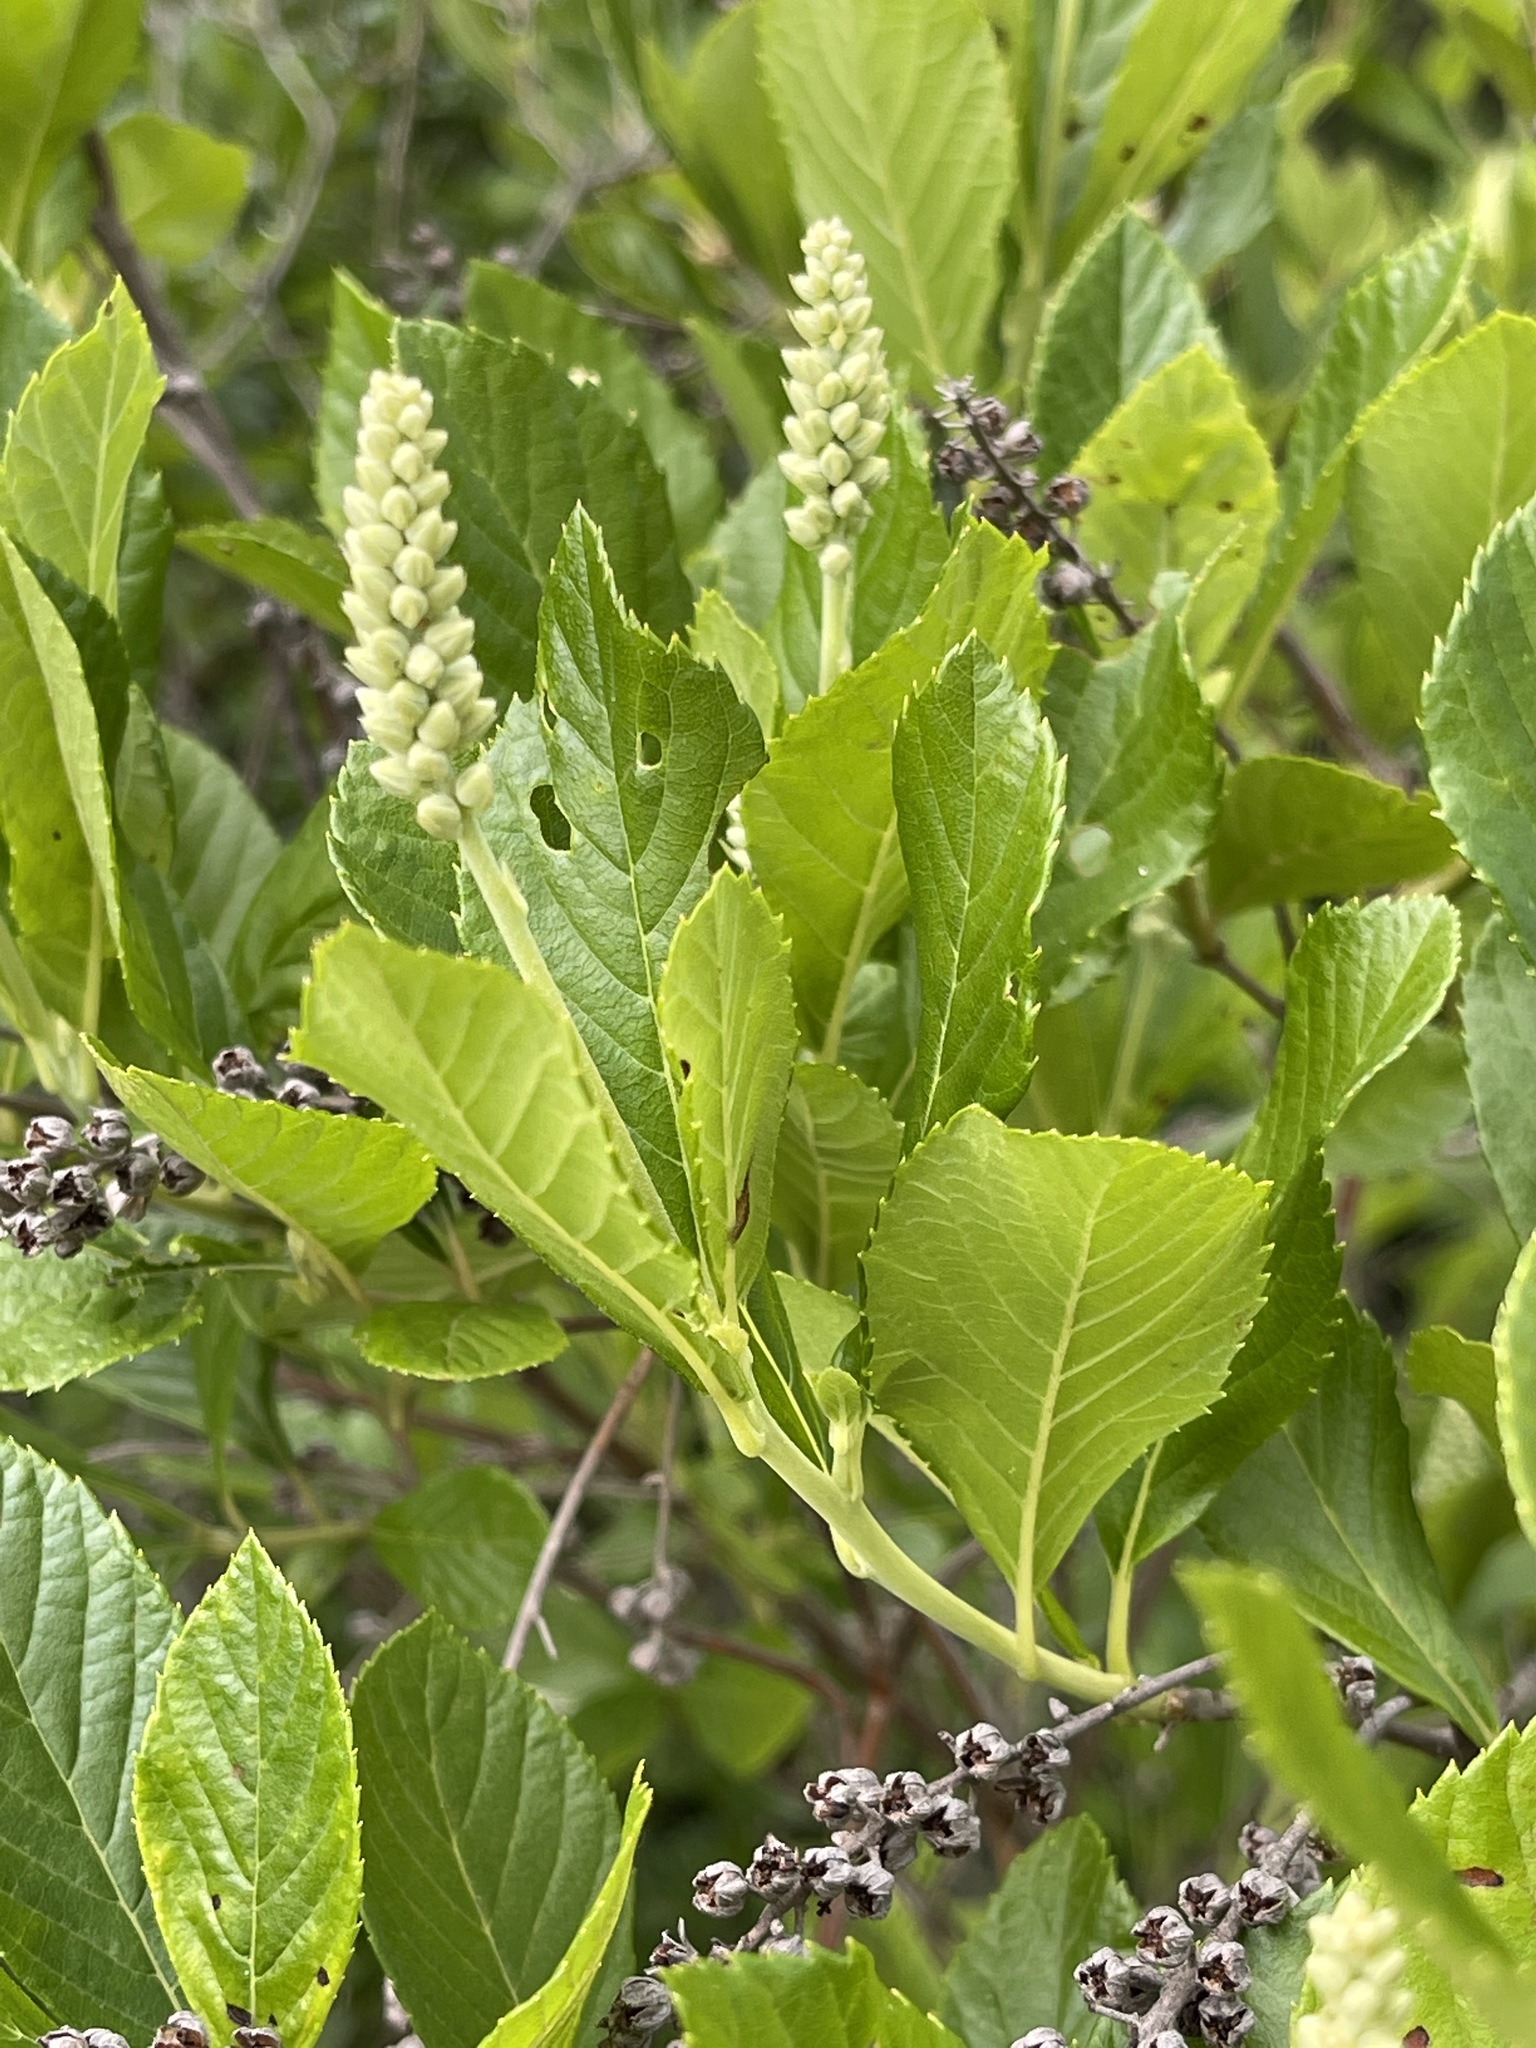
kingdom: Plantae
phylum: Tracheophyta
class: Magnoliopsida
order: Ericales
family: Clethraceae
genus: Clethra
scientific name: Clethra alnifolia
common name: Sweet pepperbush
